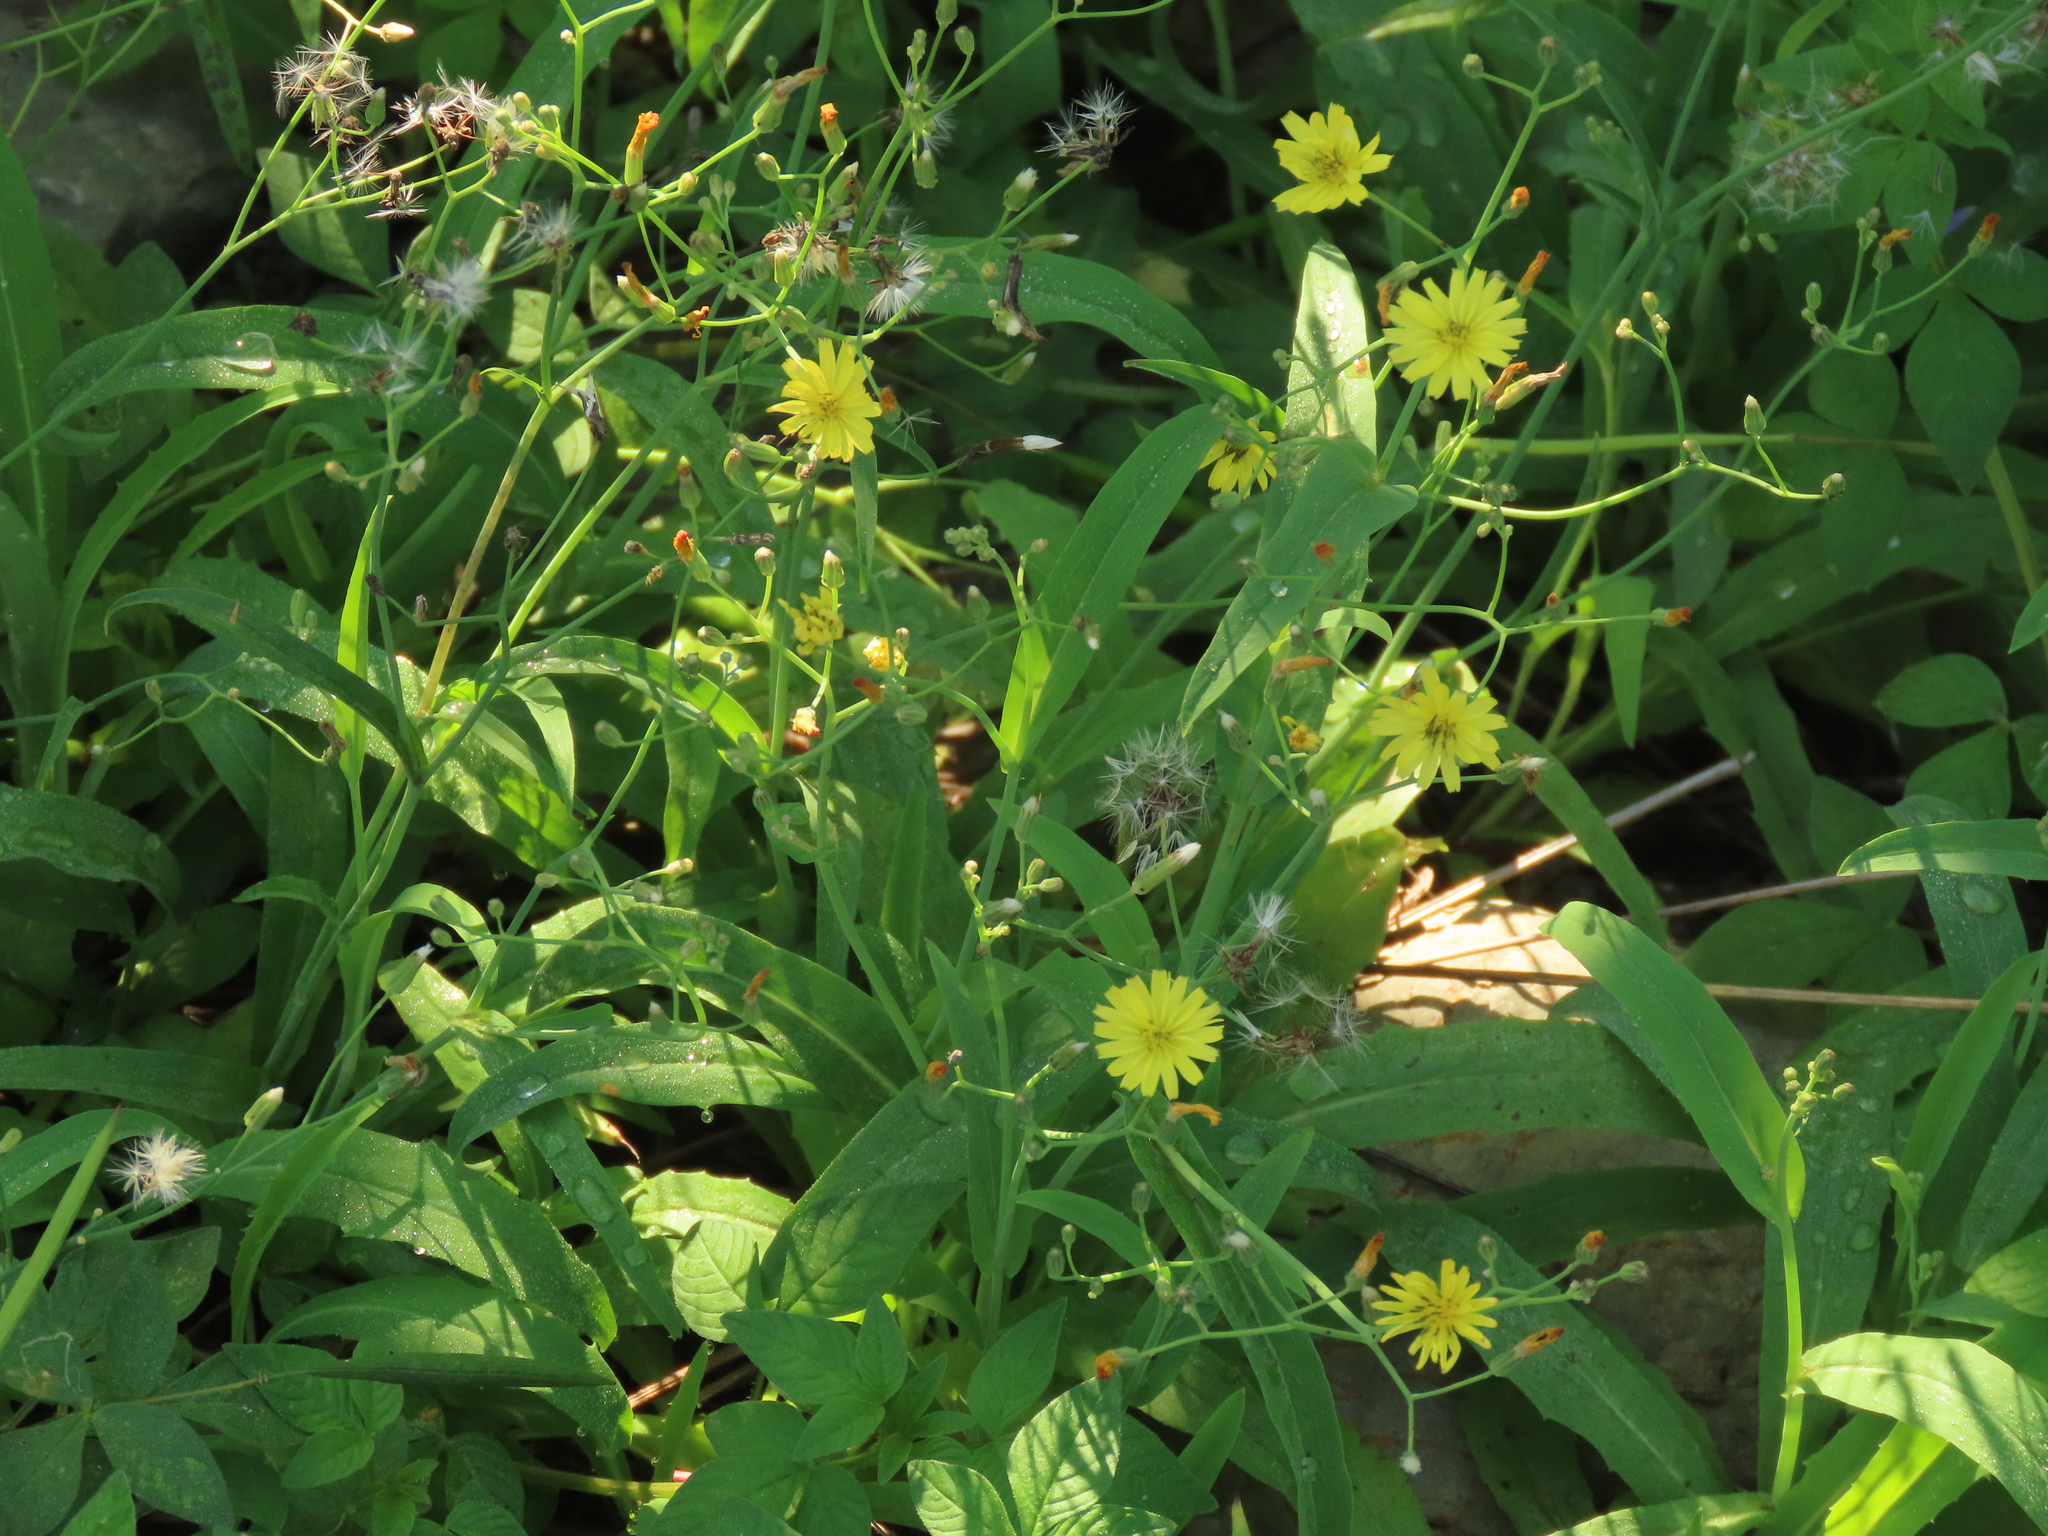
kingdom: Plantae
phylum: Tracheophyta
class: Magnoliopsida
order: Asterales
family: Asteraceae
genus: Ixeris
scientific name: Ixeris chinensis
